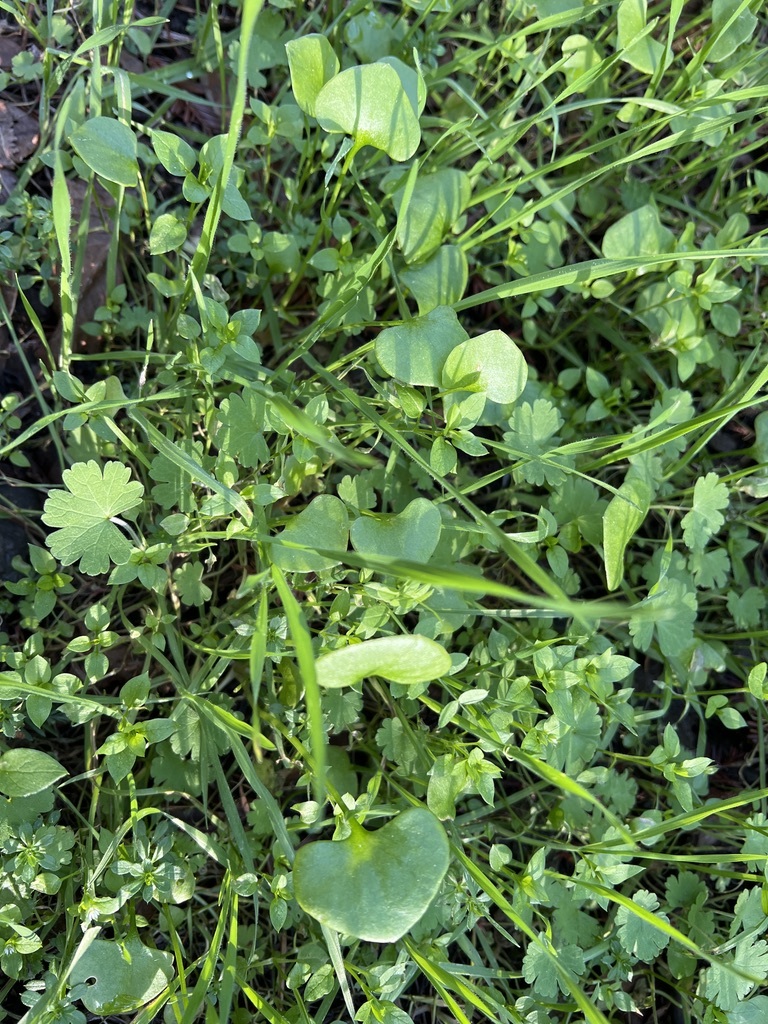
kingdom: Plantae
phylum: Tracheophyta
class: Magnoliopsida
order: Caryophyllales
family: Montiaceae
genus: Claytonia
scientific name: Claytonia perfoliata
